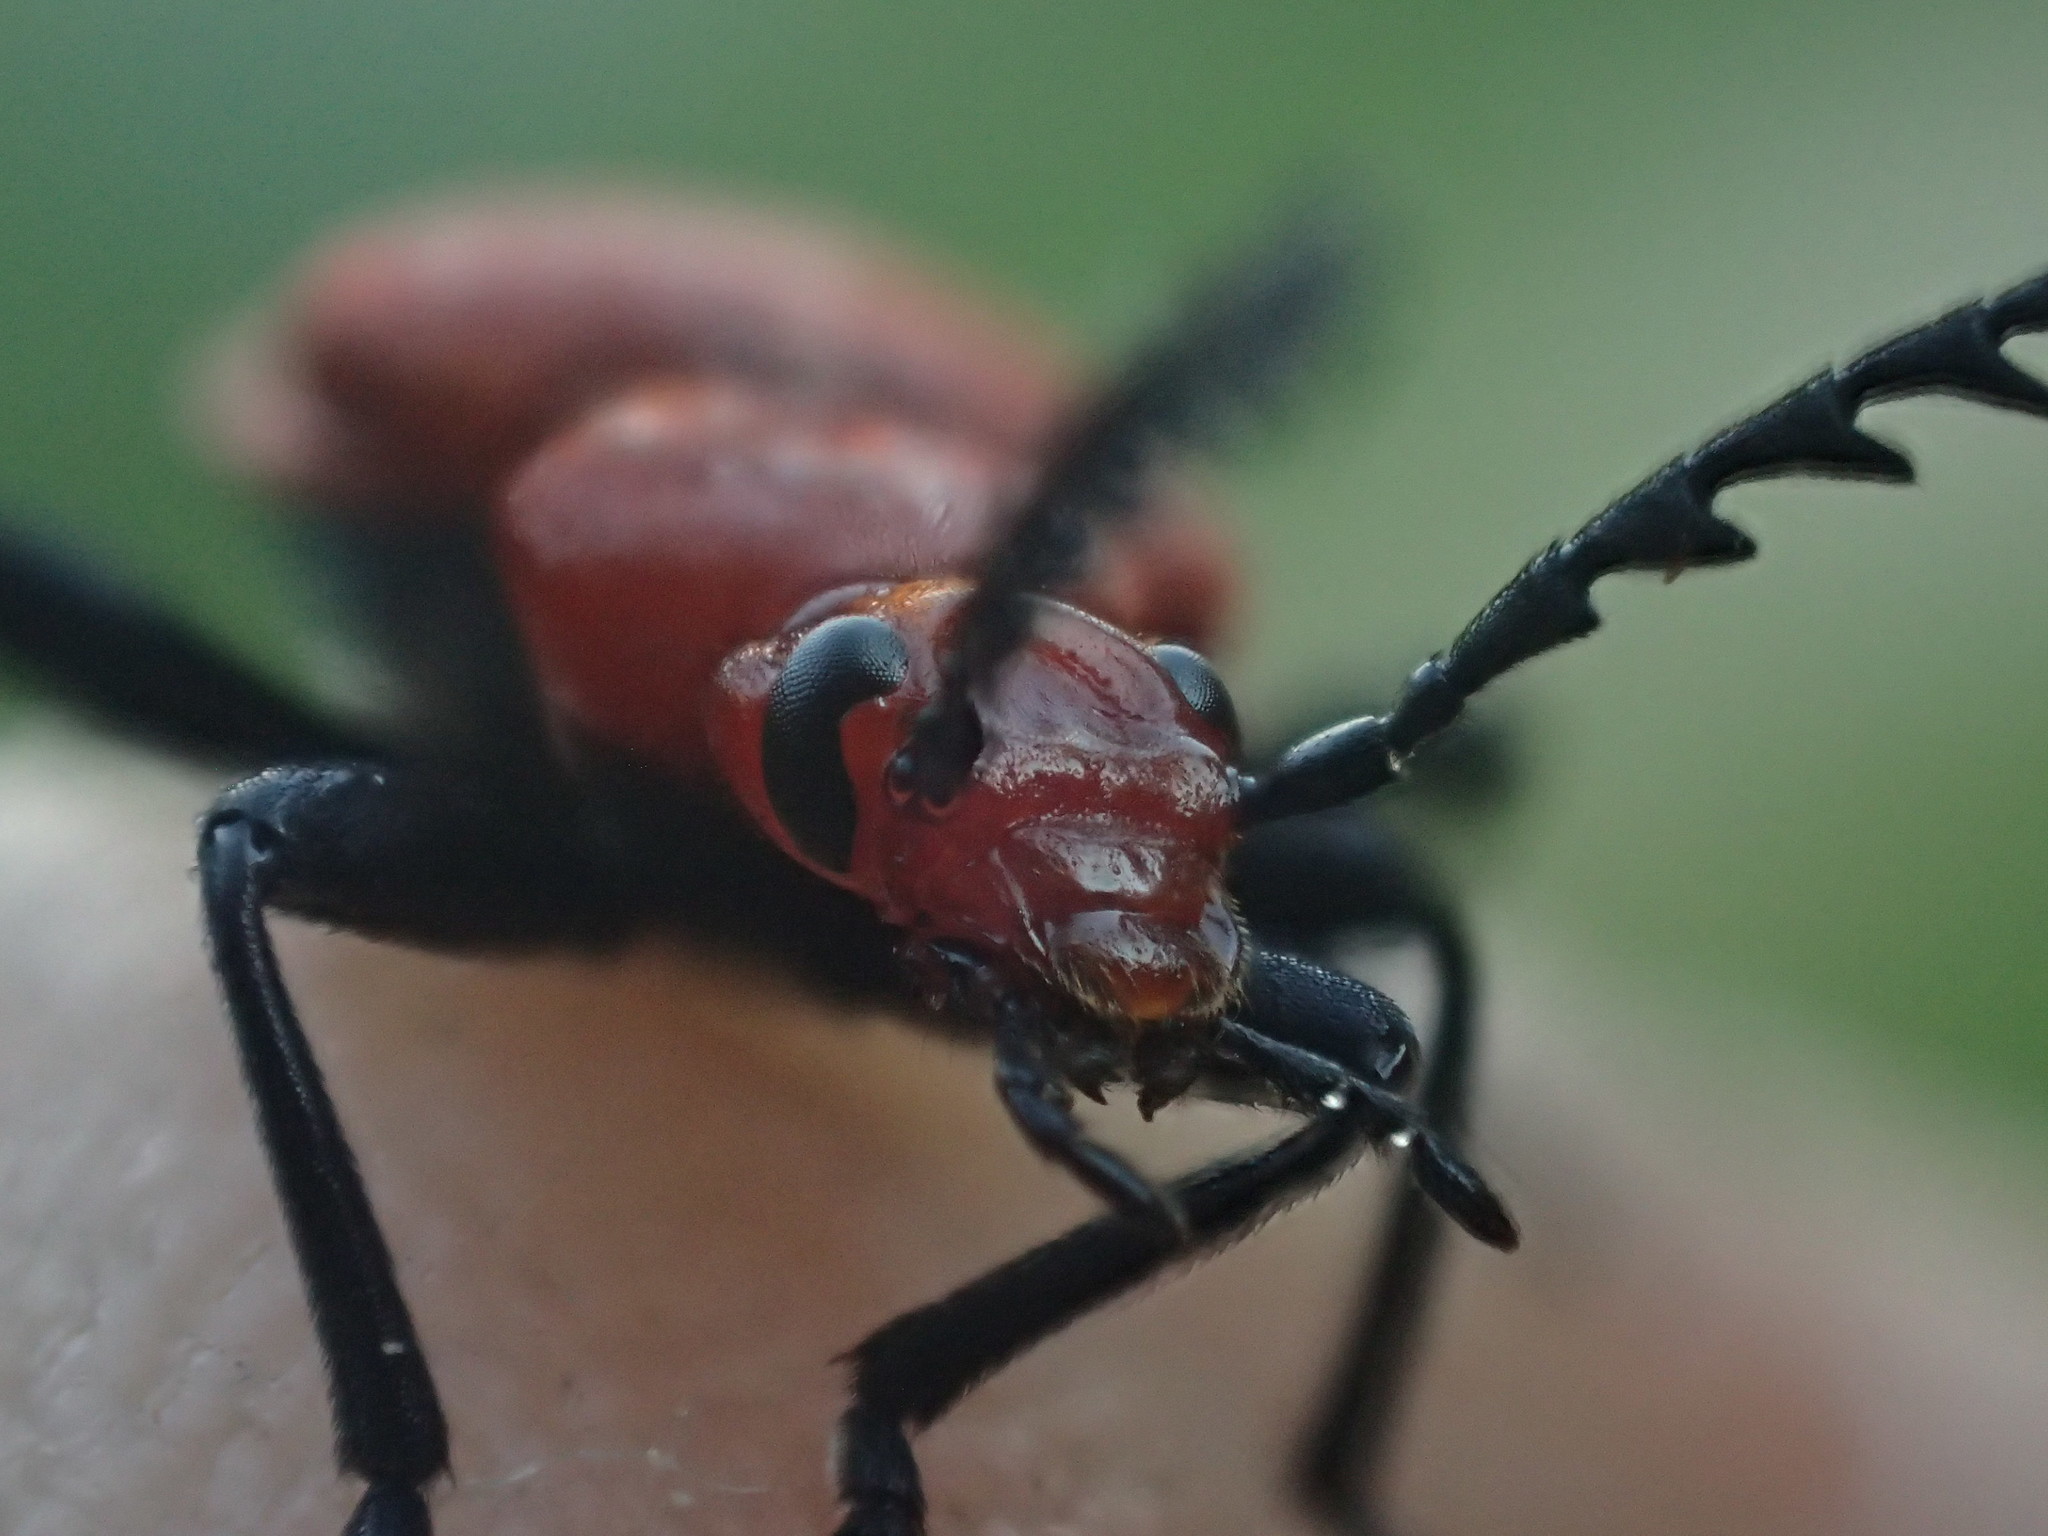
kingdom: Animalia
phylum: Arthropoda
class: Insecta
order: Coleoptera
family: Pyrochroidae
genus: Pyrochroa
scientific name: Pyrochroa serraticornis
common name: Red-headed cardinal beetle
